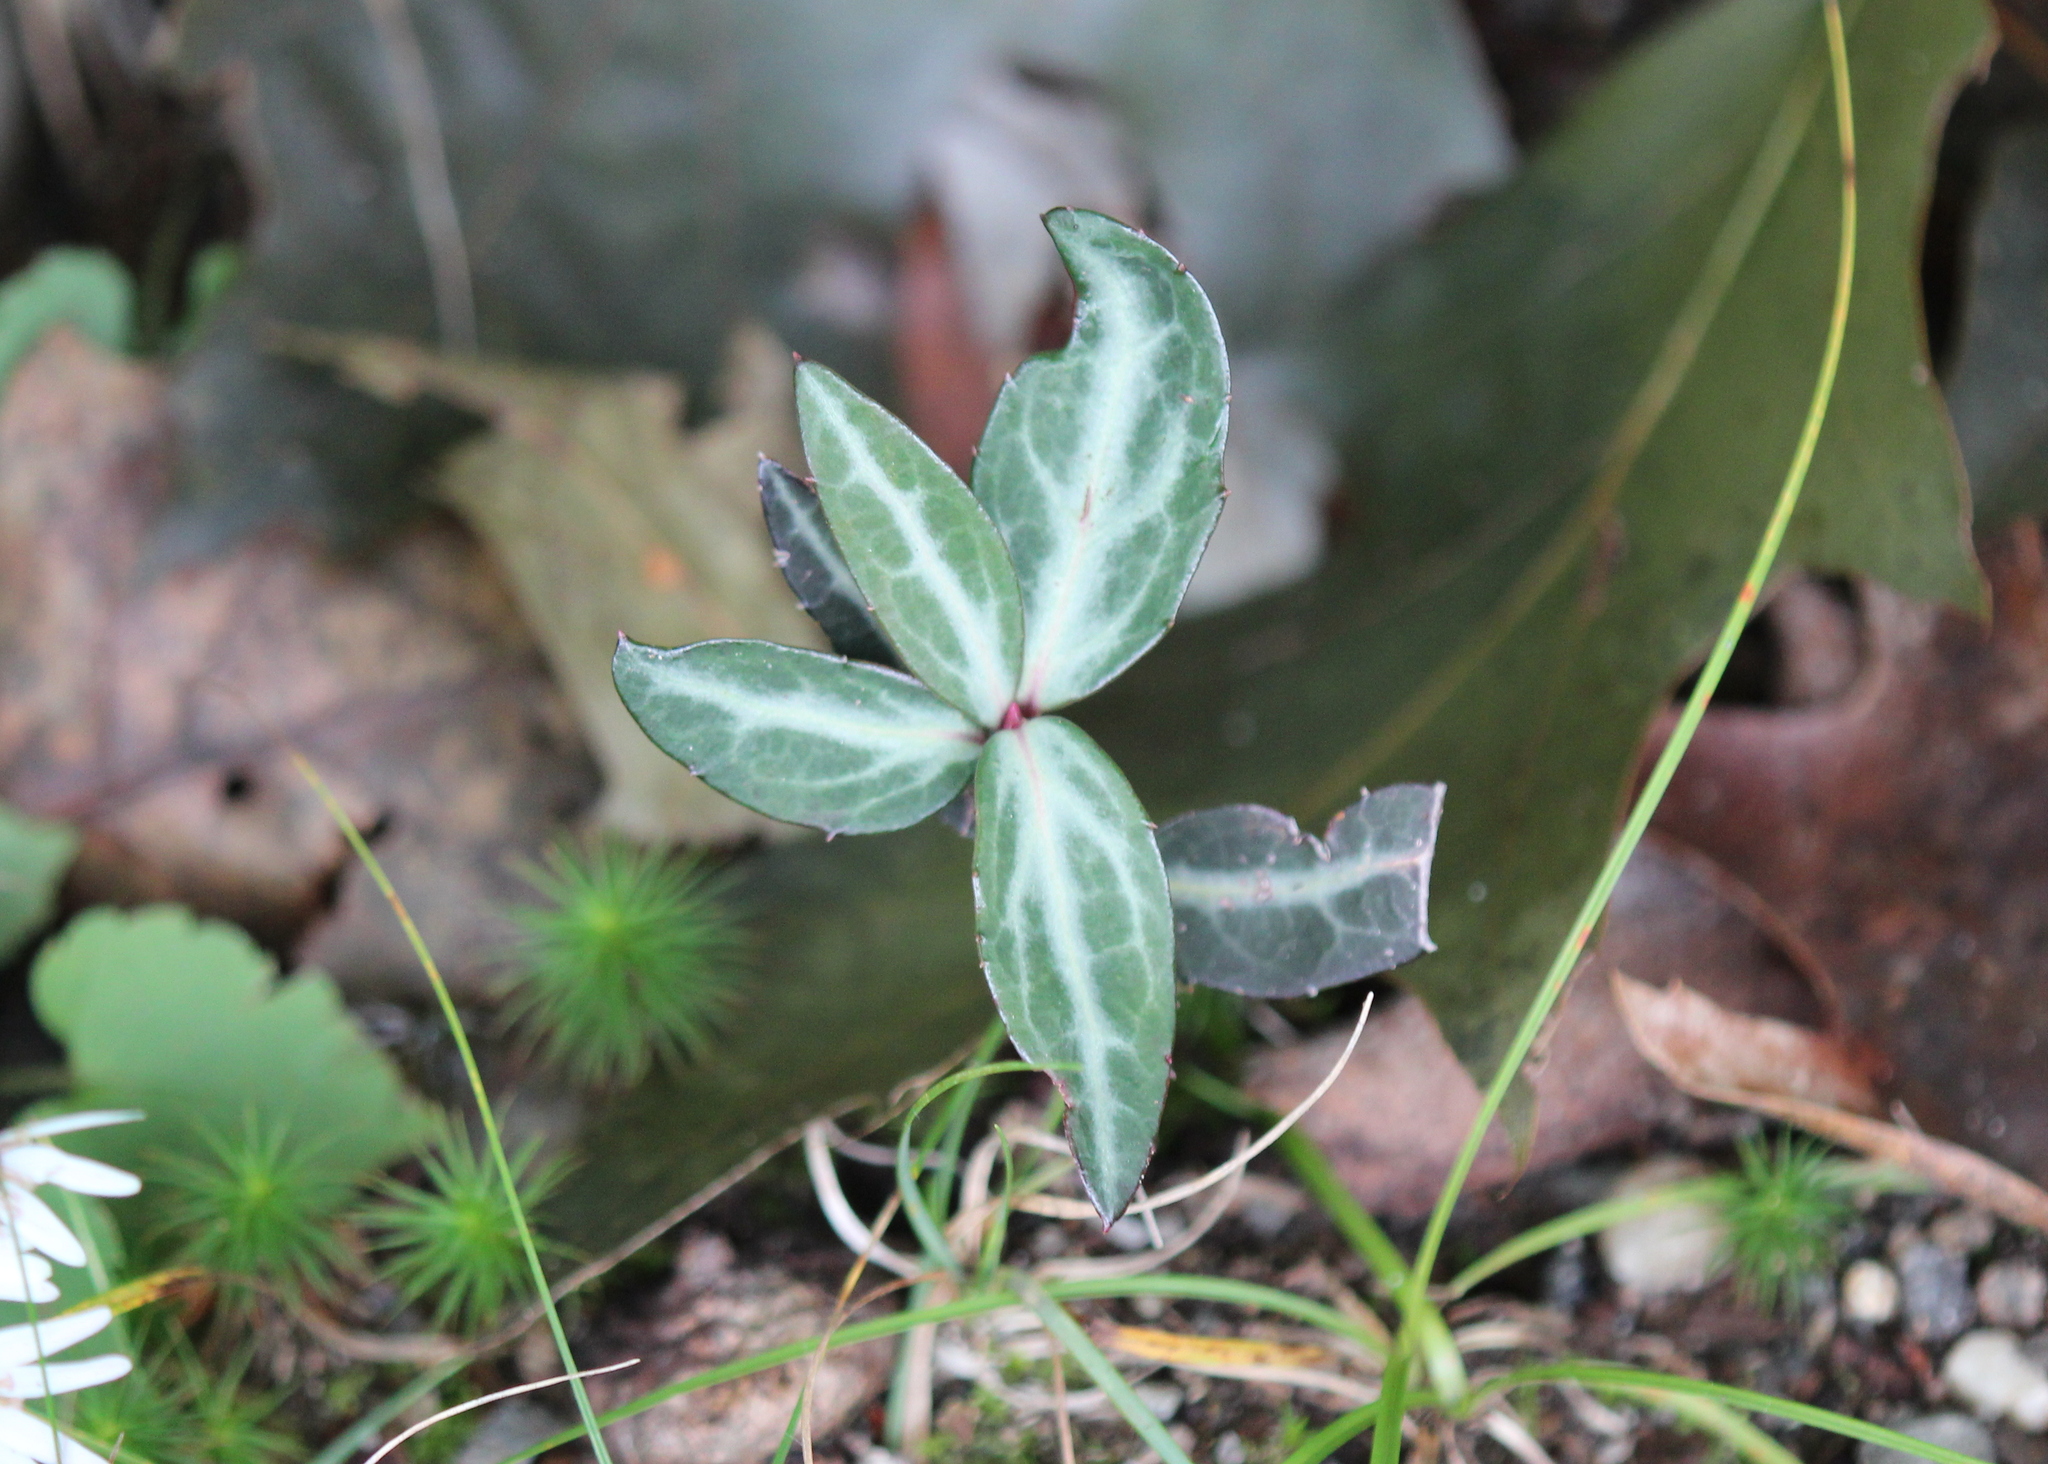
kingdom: Plantae
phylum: Tracheophyta
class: Magnoliopsida
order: Ericales
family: Ericaceae
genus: Chimaphila
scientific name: Chimaphila maculata
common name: Spotted pipsissewa
